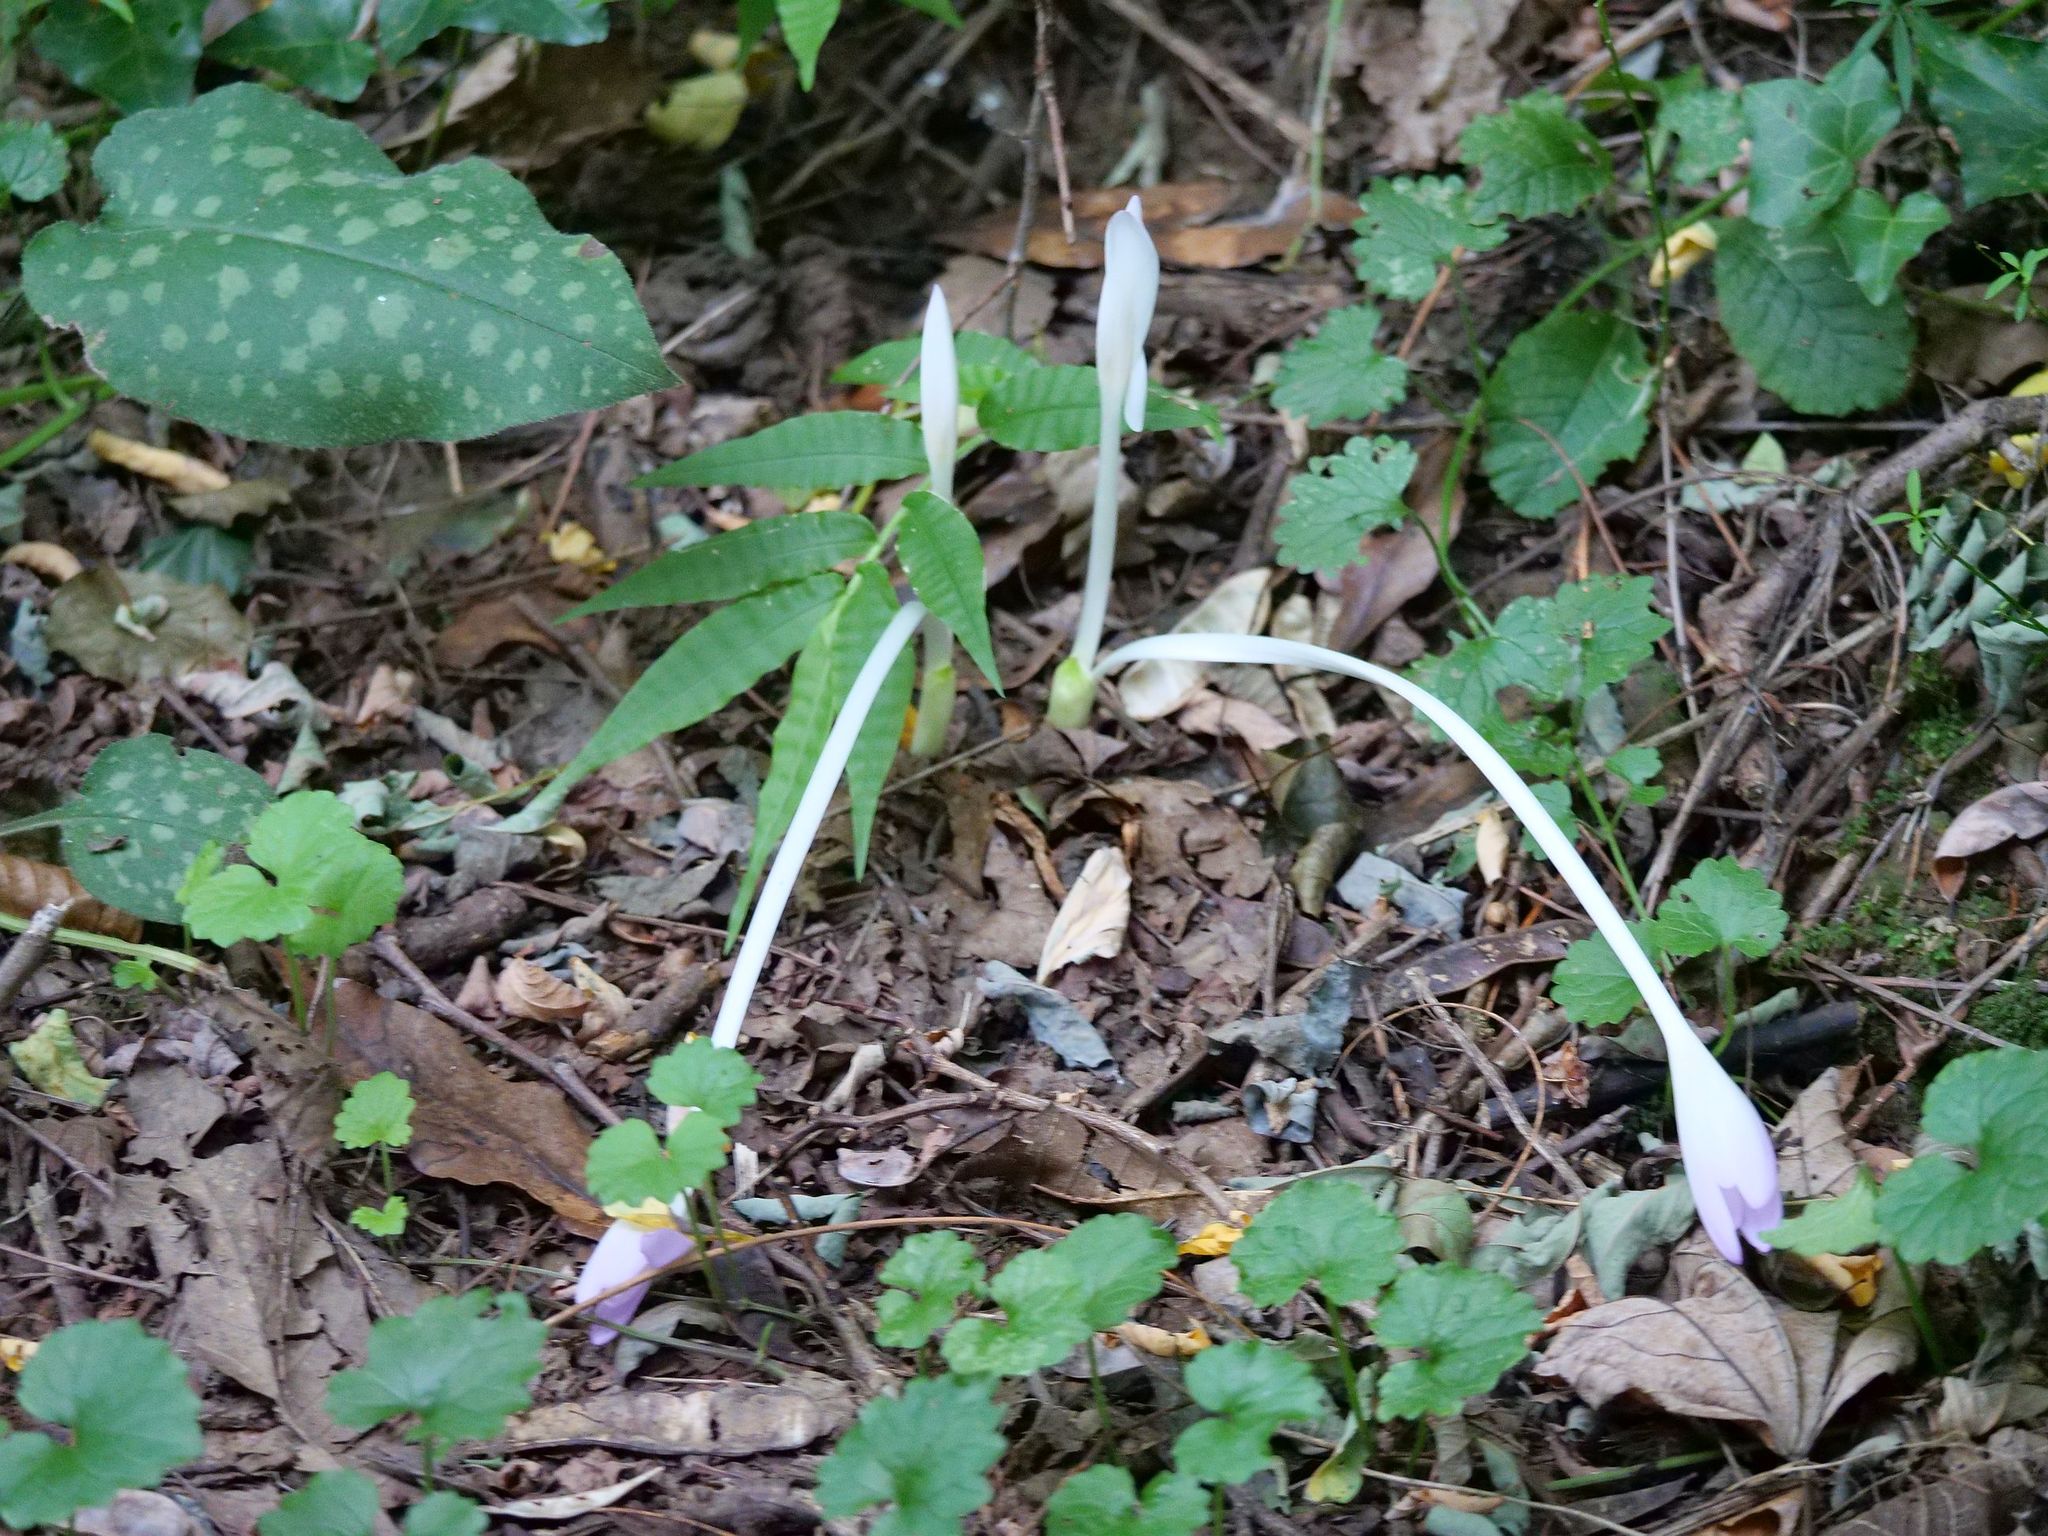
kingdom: Plantae
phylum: Tracheophyta
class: Liliopsida
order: Liliales
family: Colchicaceae
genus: Colchicum
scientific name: Colchicum autumnale
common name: Autumn crocus
